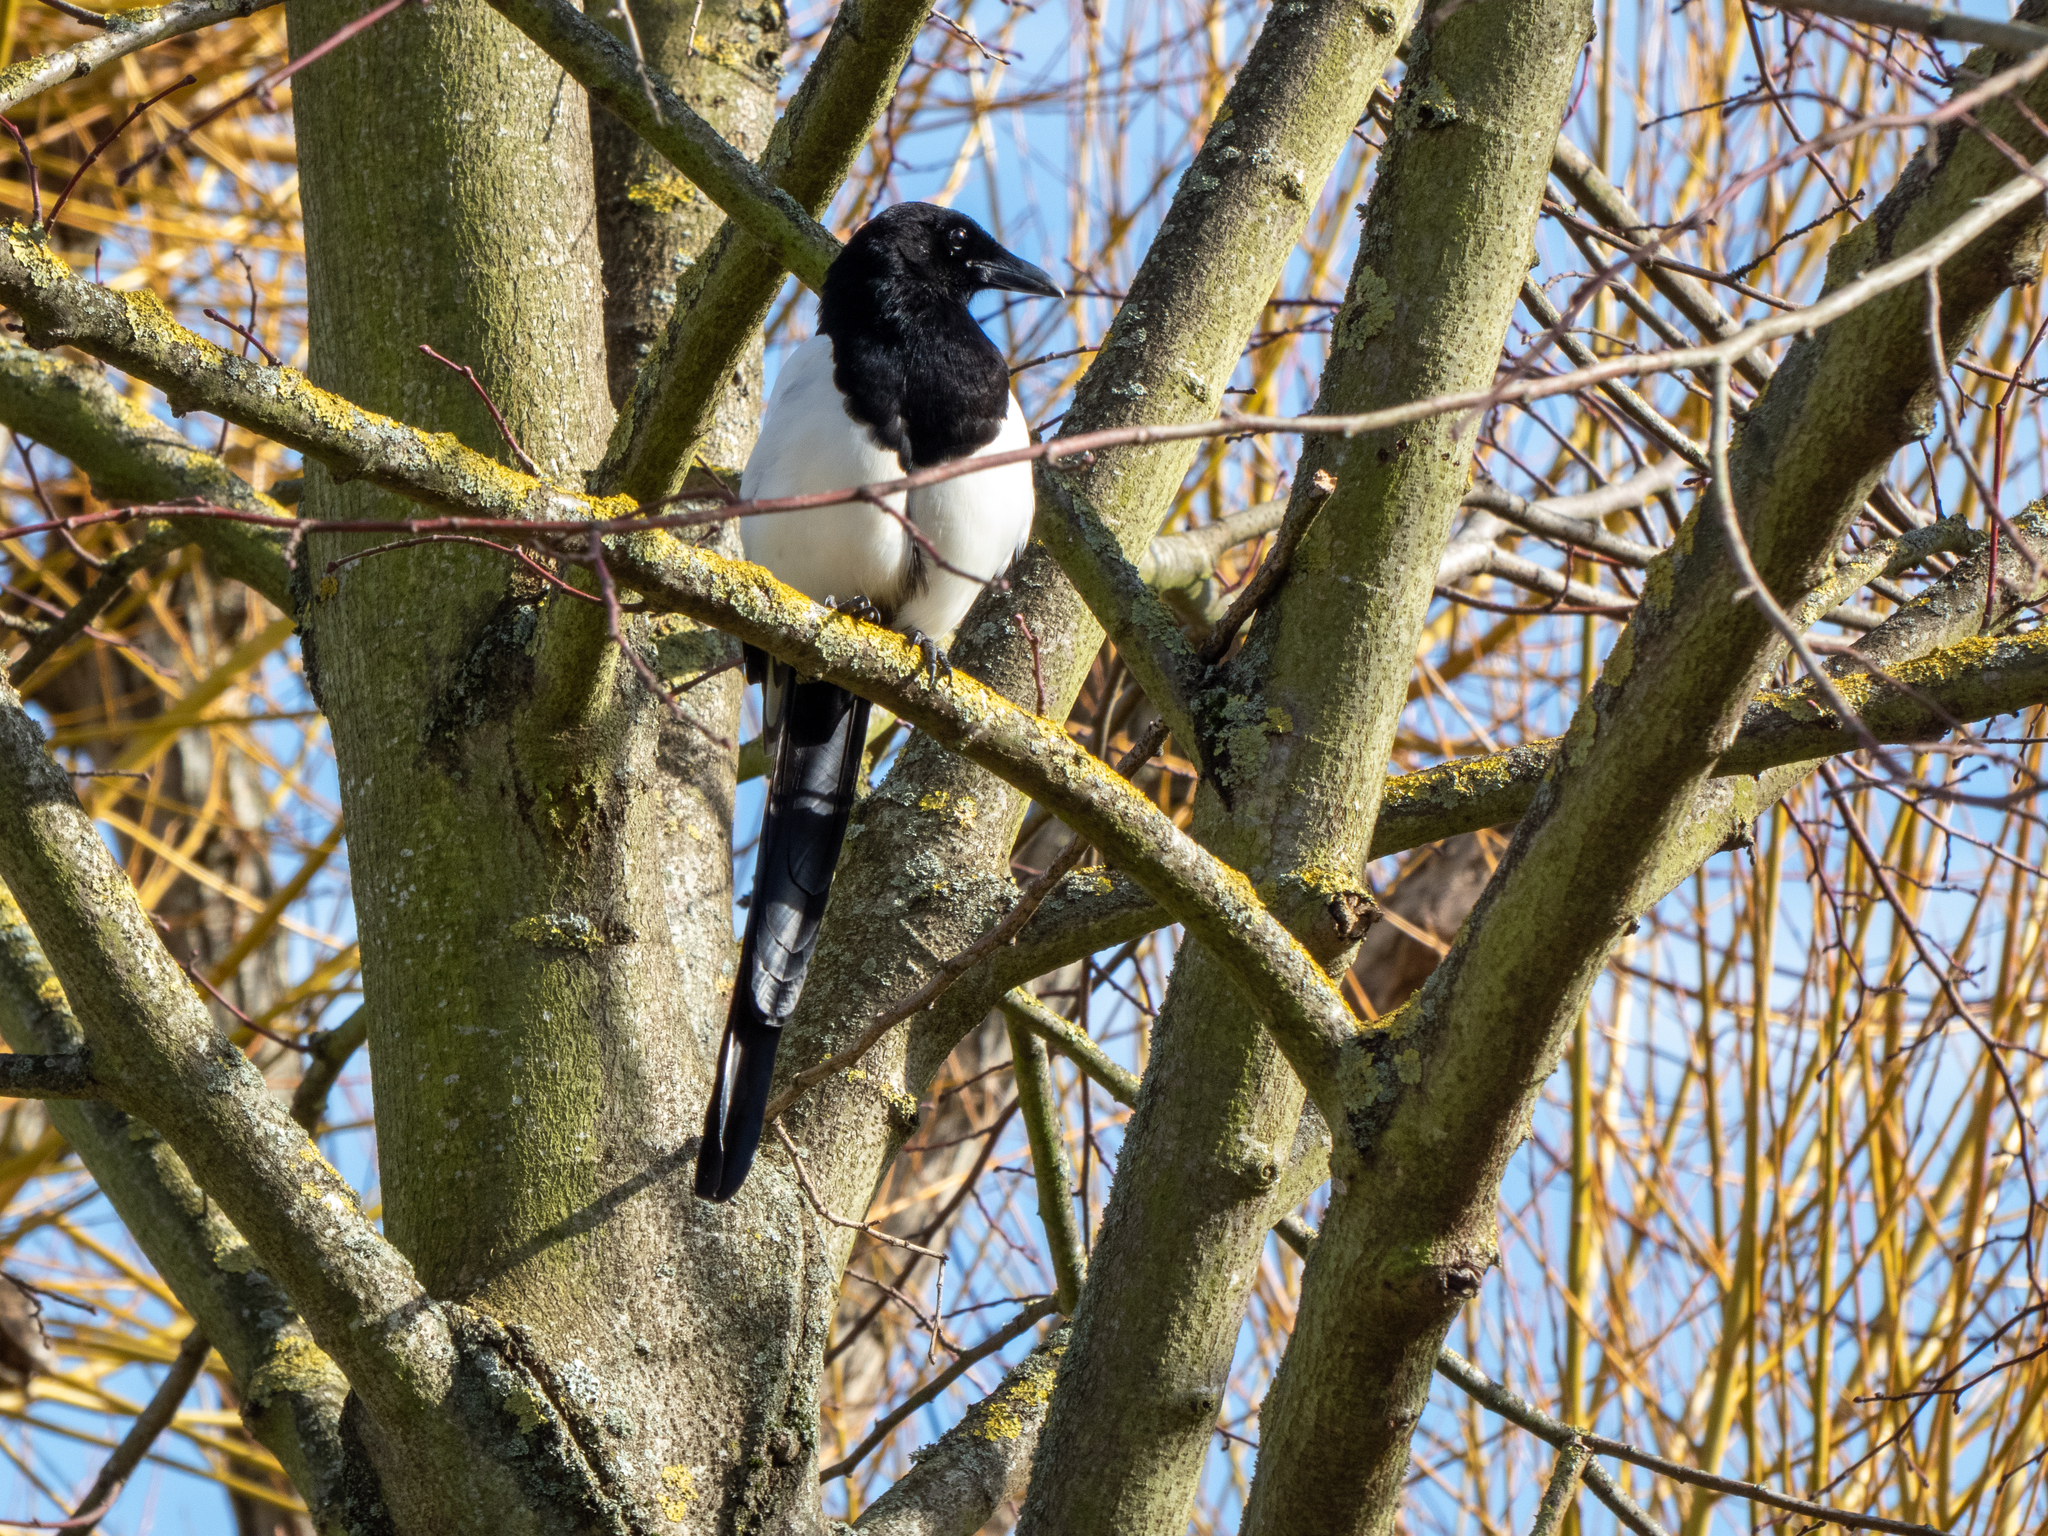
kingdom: Animalia
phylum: Chordata
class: Aves
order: Passeriformes
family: Corvidae
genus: Pica
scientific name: Pica pica
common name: Eurasian magpie
